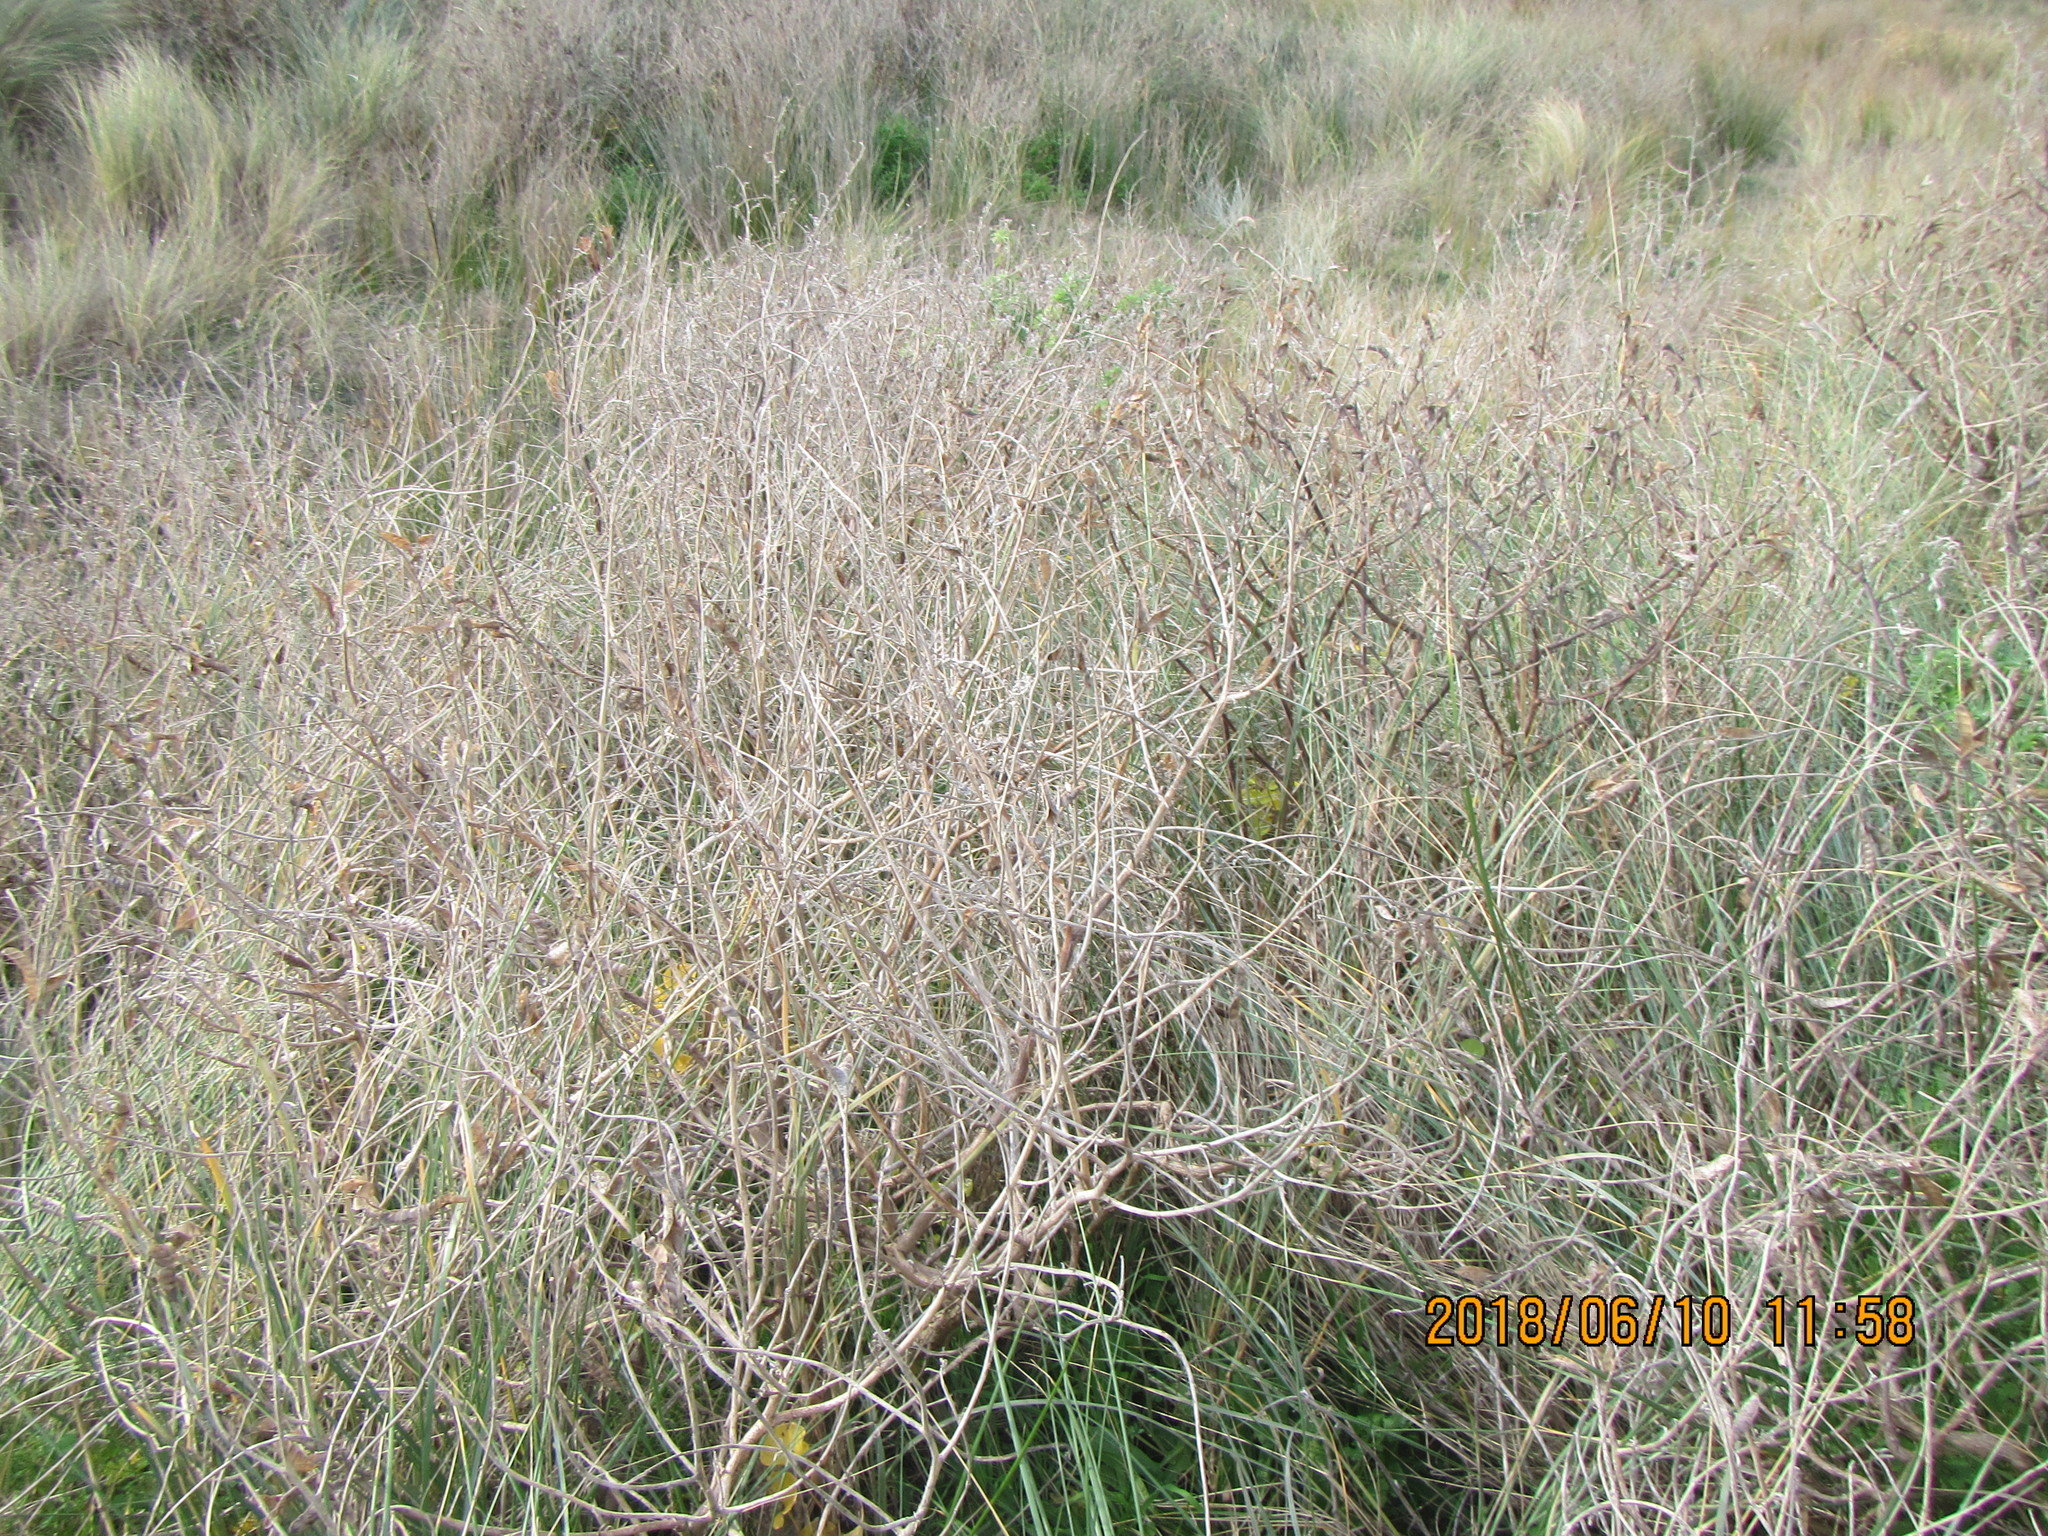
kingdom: Plantae
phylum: Tracheophyta
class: Magnoliopsida
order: Fabales
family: Fabaceae
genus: Lupinus
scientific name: Lupinus arboreus
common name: Yellow bush lupine
